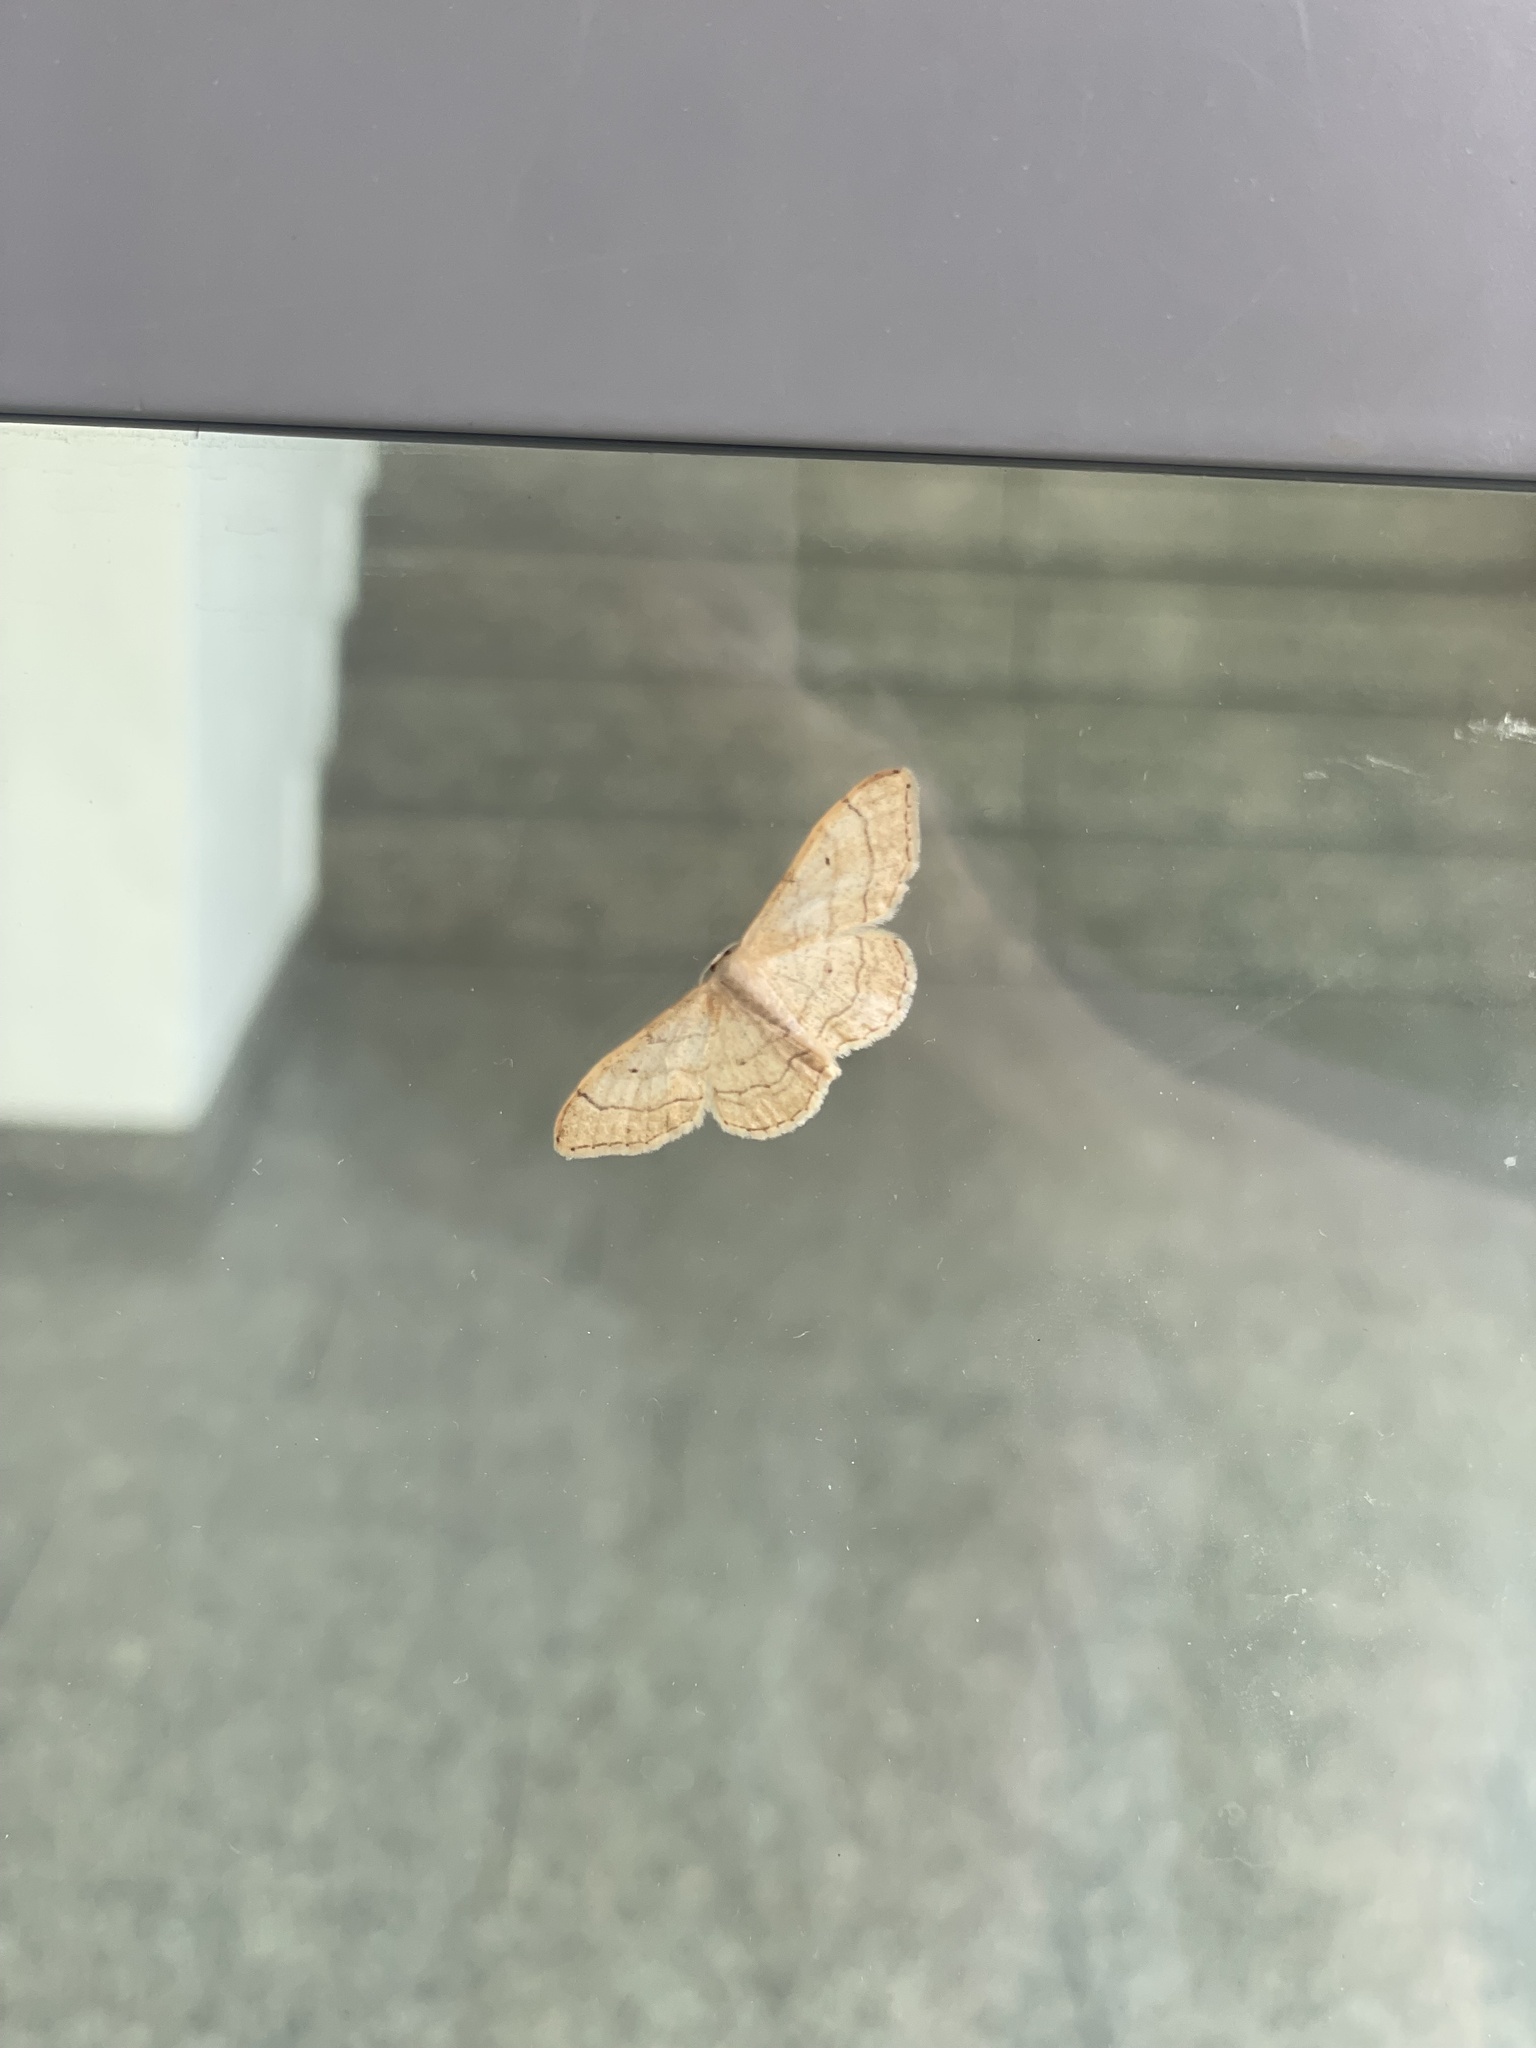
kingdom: Animalia
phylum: Arthropoda
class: Insecta
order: Lepidoptera
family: Geometridae
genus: Idaea
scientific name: Idaea straminata
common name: Plain wave
